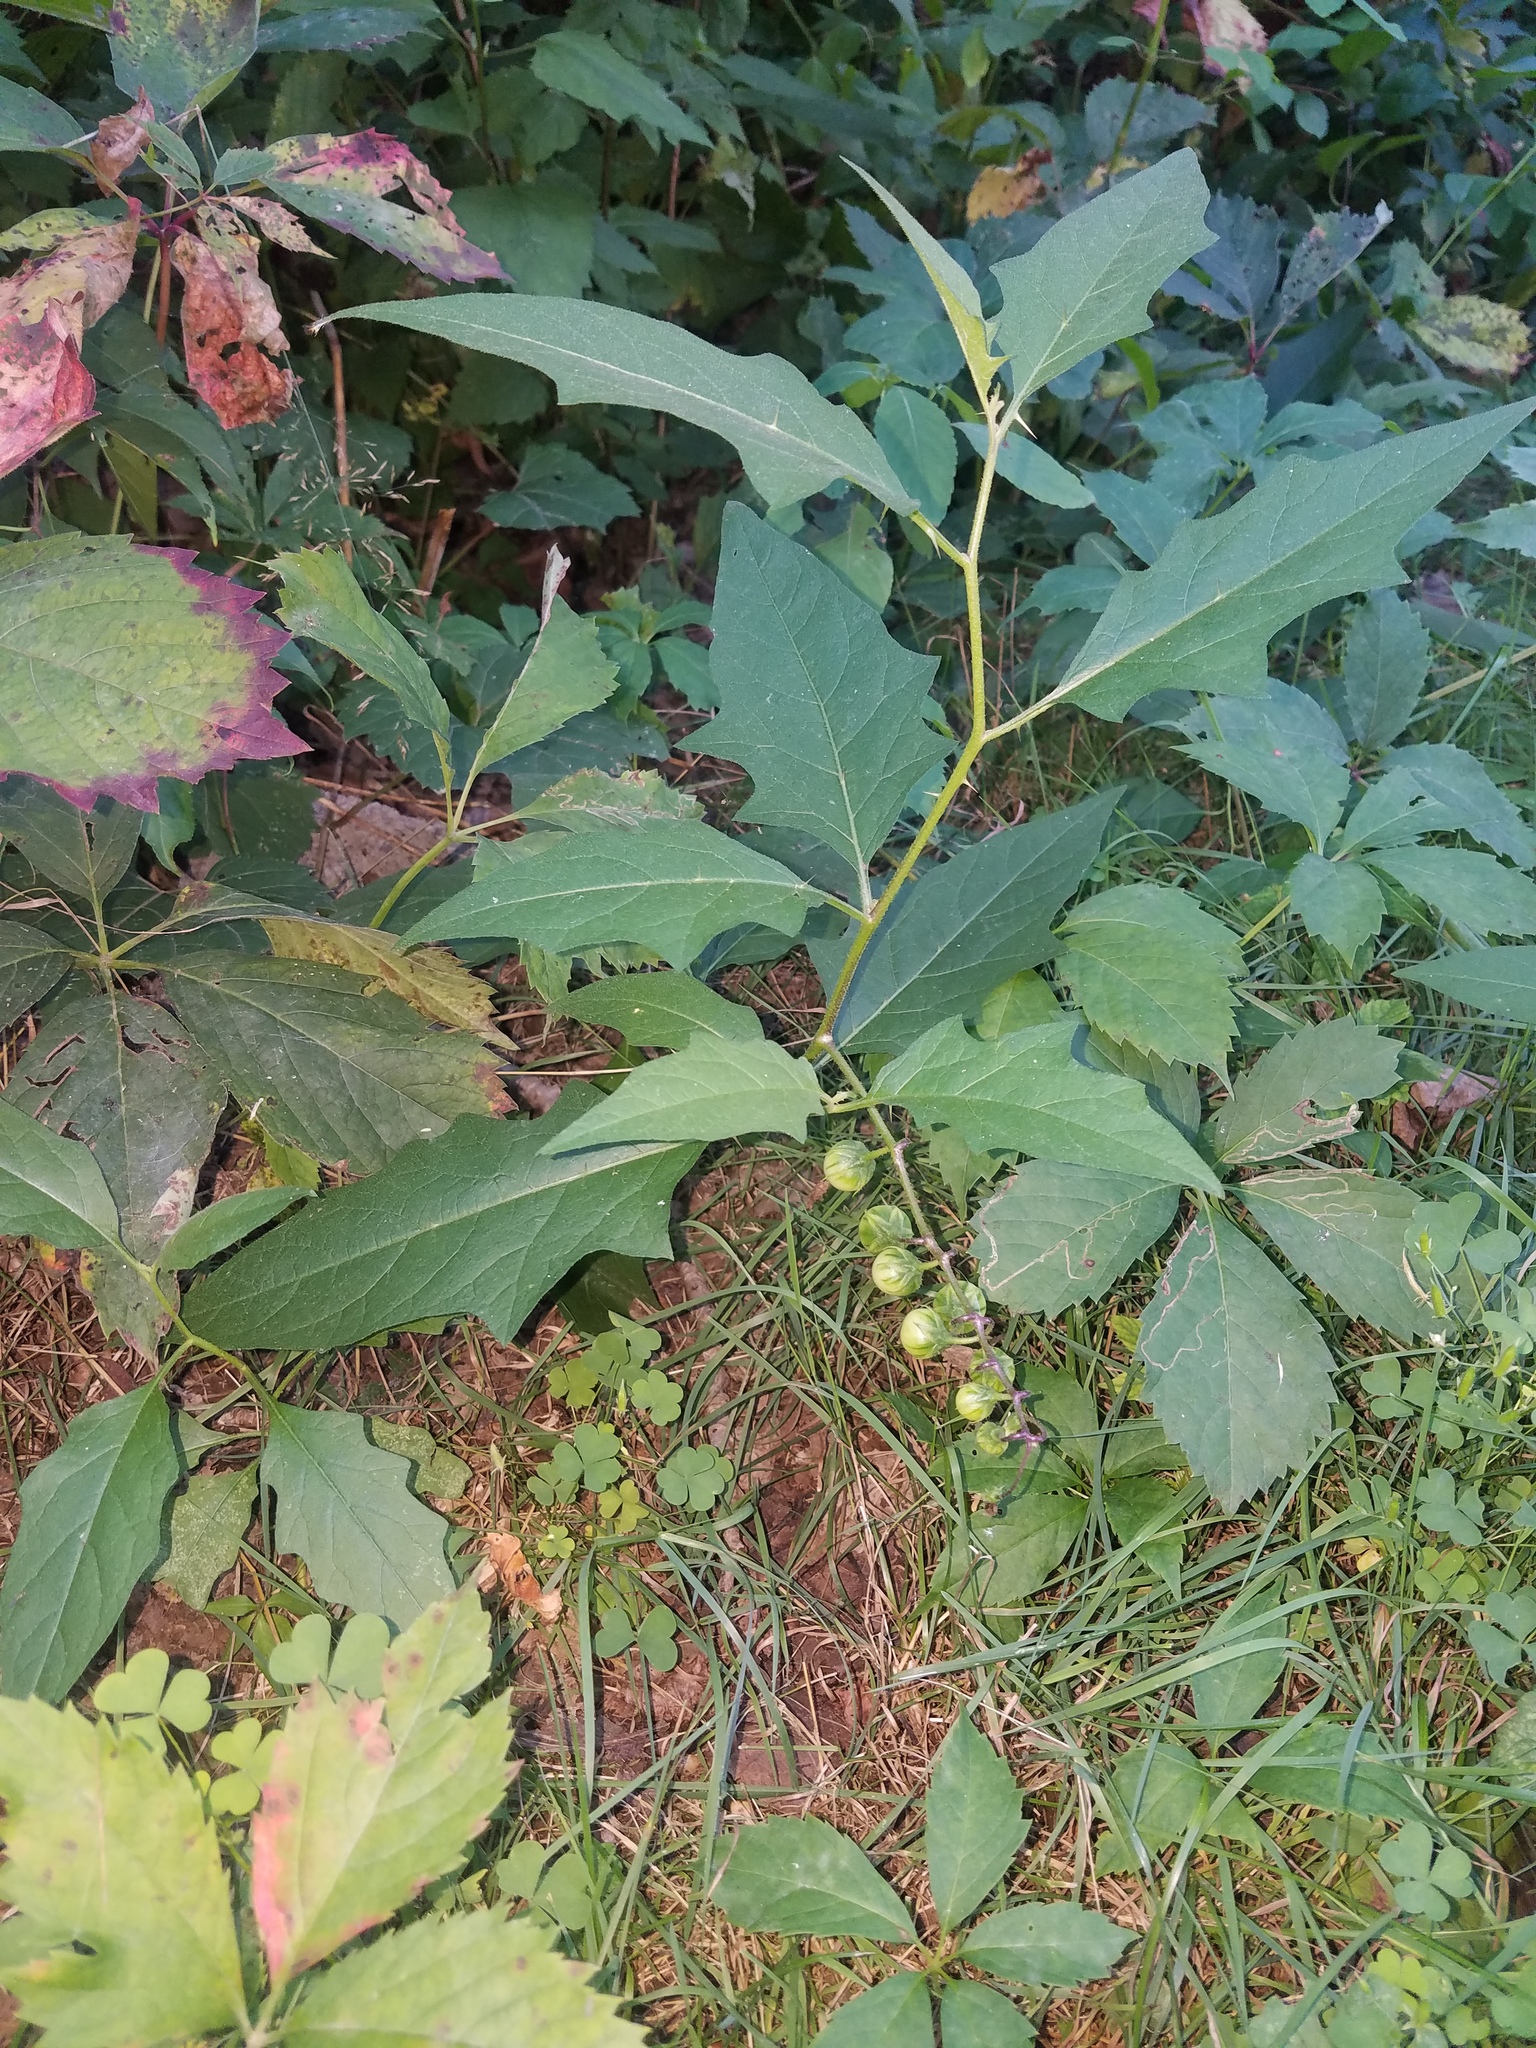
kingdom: Plantae
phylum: Tracheophyta
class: Magnoliopsida
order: Solanales
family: Solanaceae
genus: Solanum
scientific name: Solanum carolinense
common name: Horse-nettle
